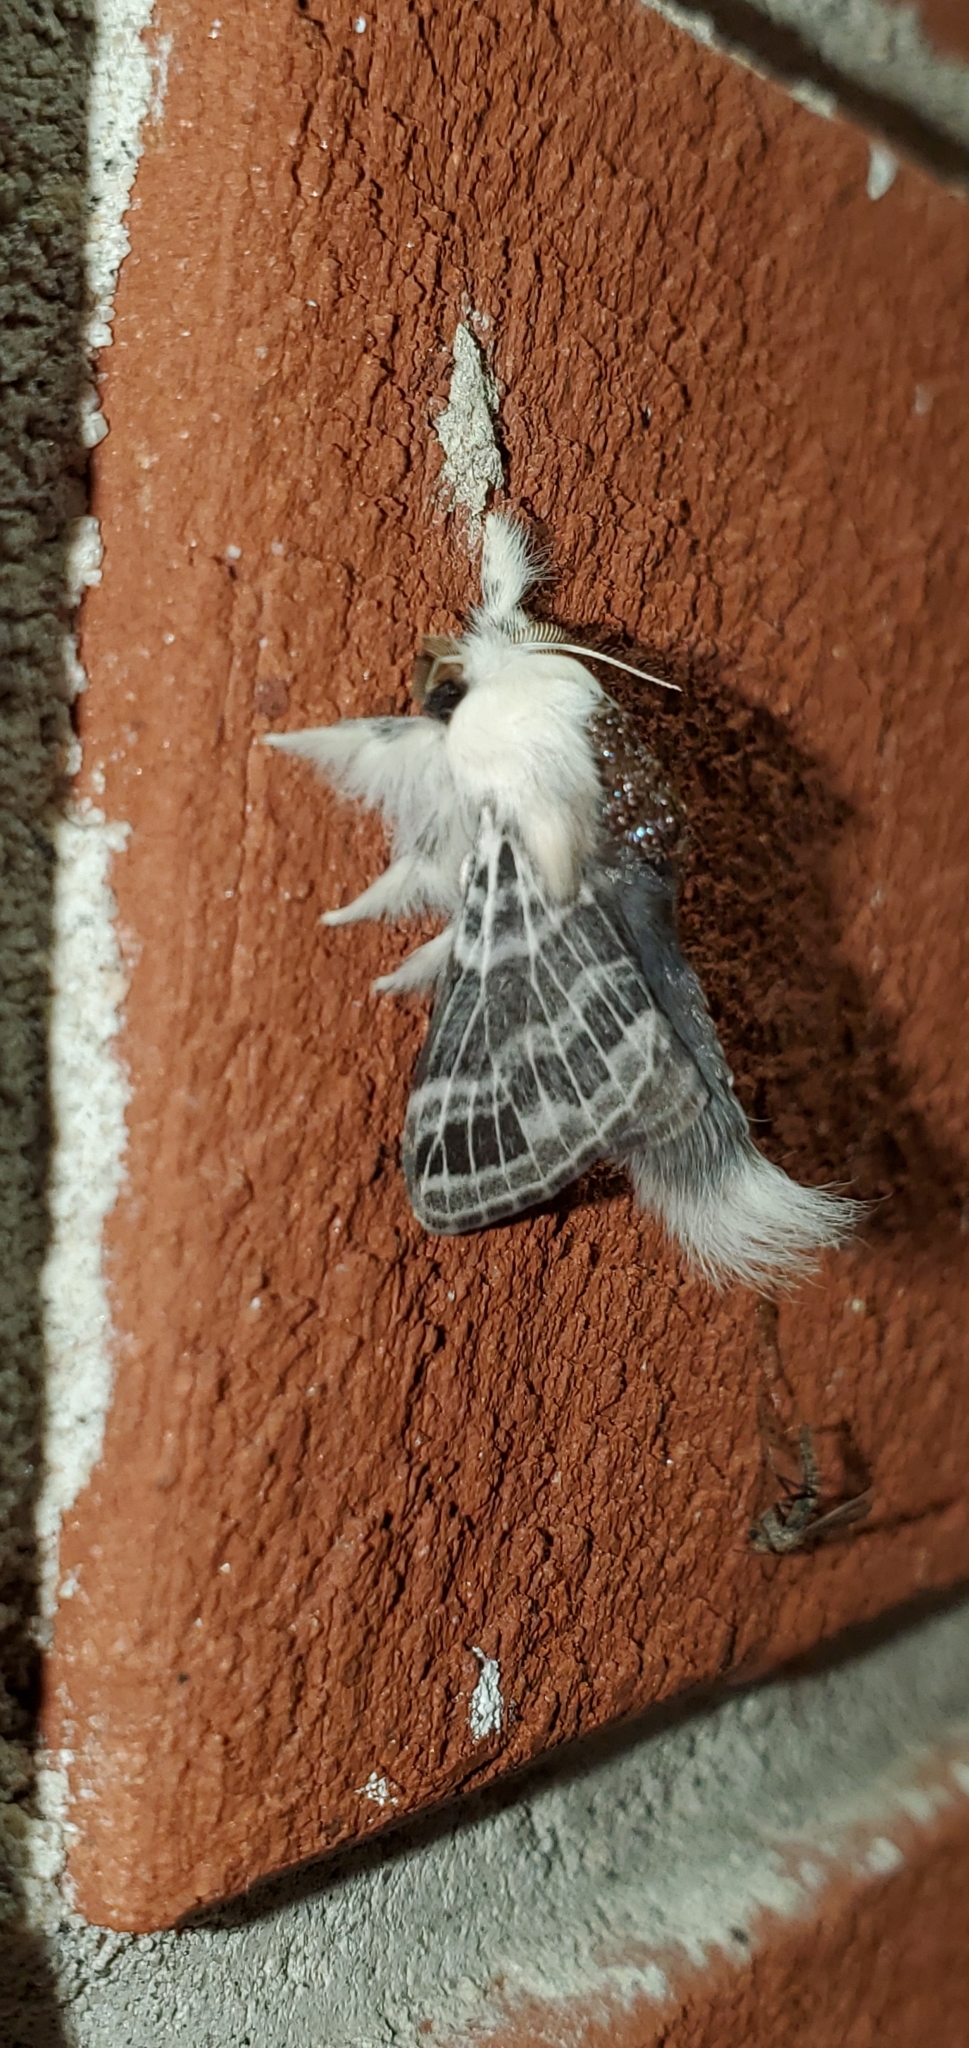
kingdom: Animalia
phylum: Arthropoda
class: Insecta
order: Lepidoptera
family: Lasiocampidae
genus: Tolype
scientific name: Tolype velleda
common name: Large tolype moth
